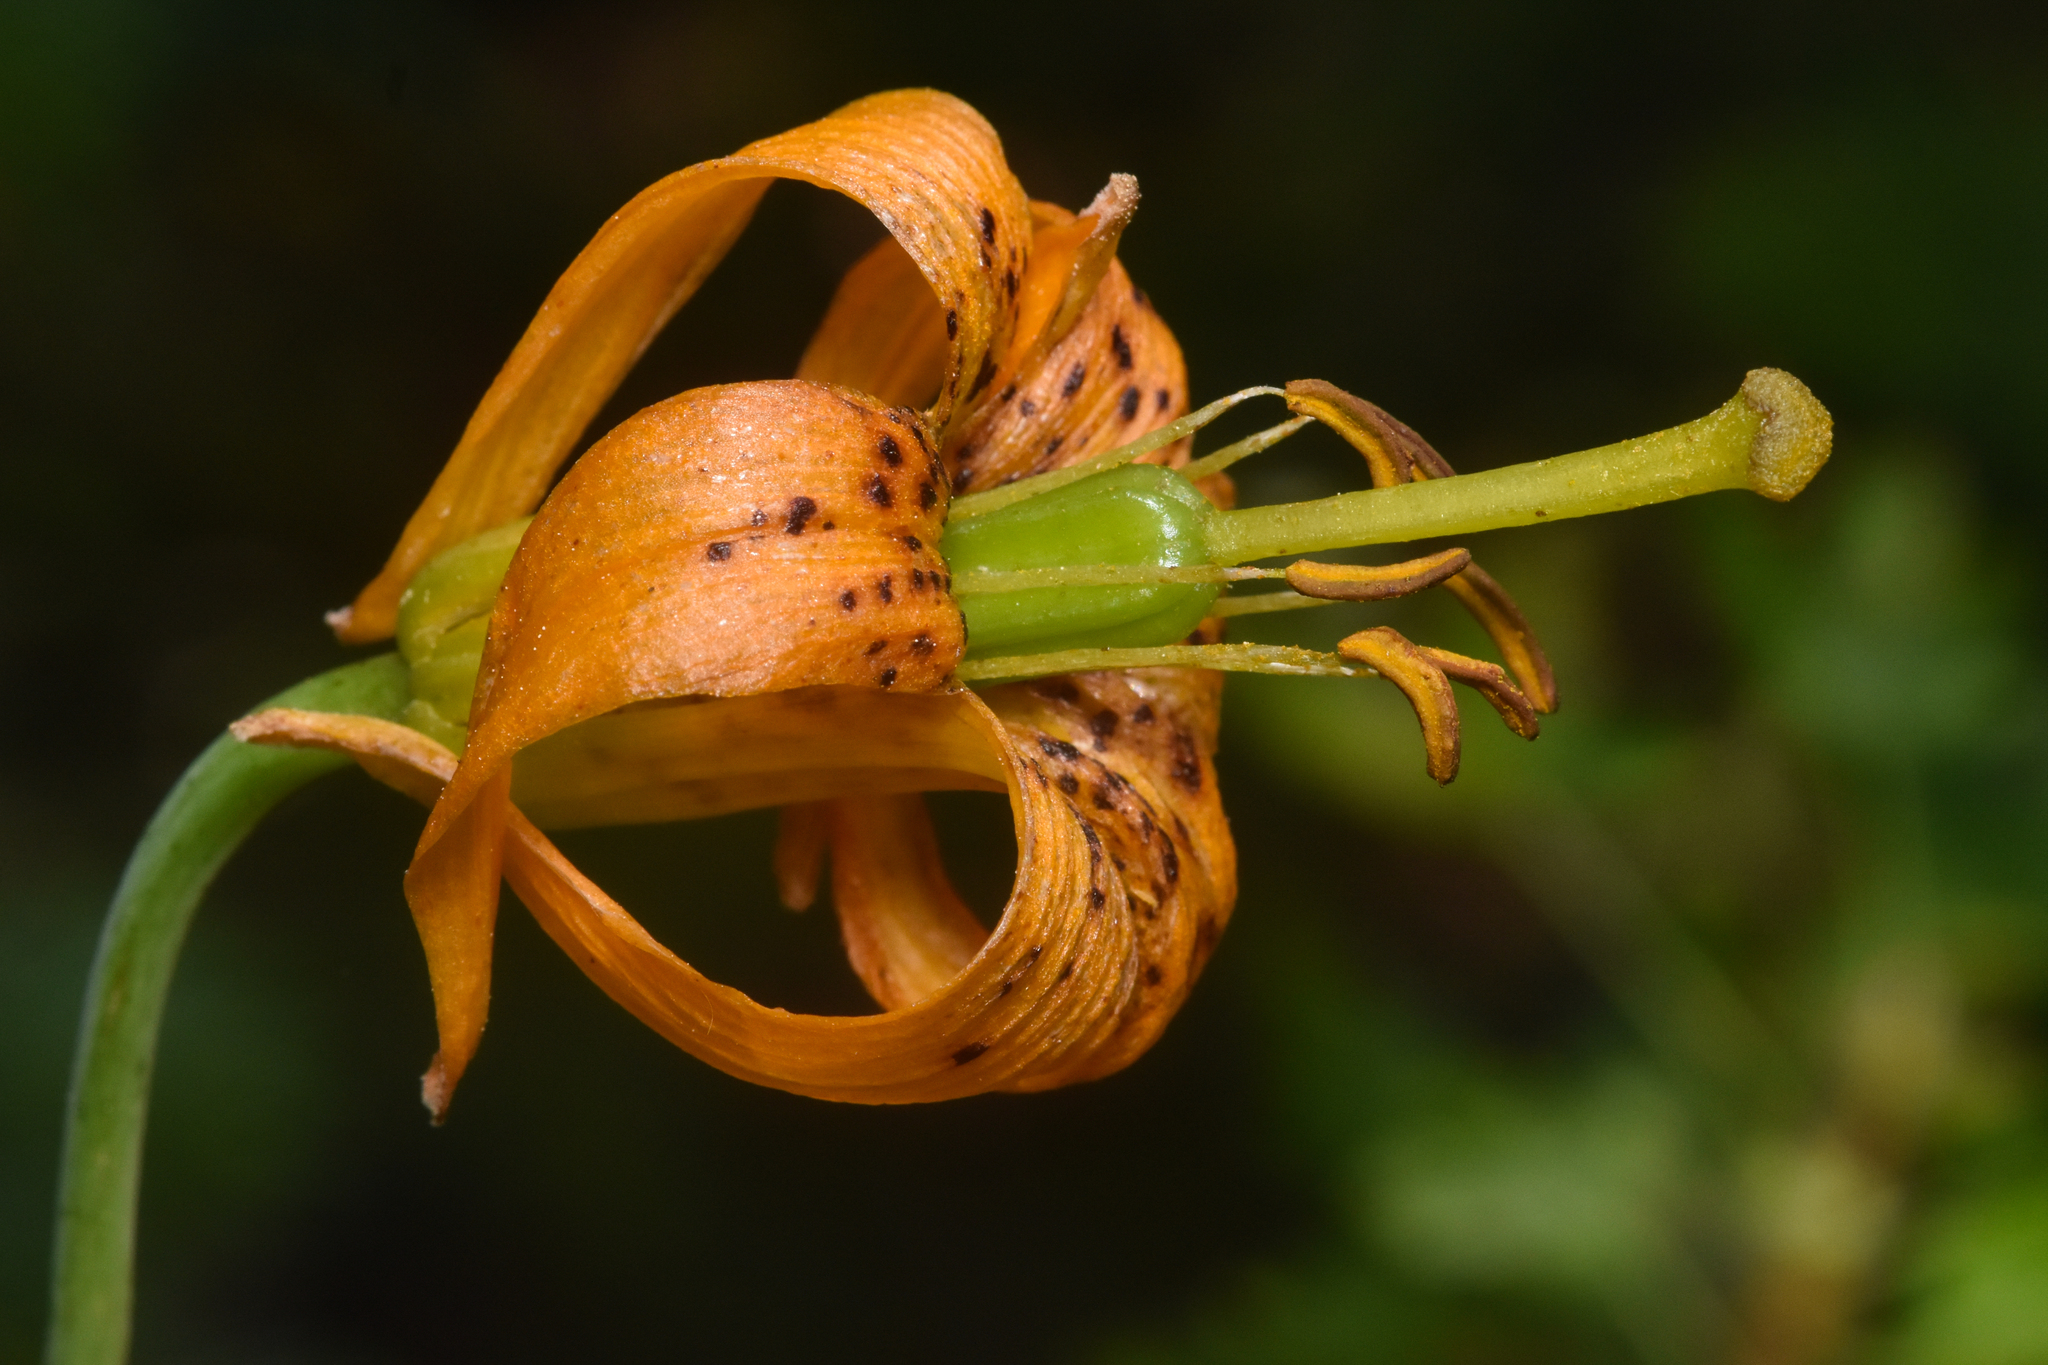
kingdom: Plantae
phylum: Tracheophyta
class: Liliopsida
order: Liliales
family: Liliaceae
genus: Lilium
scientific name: Lilium columbianum
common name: Columbia lily
